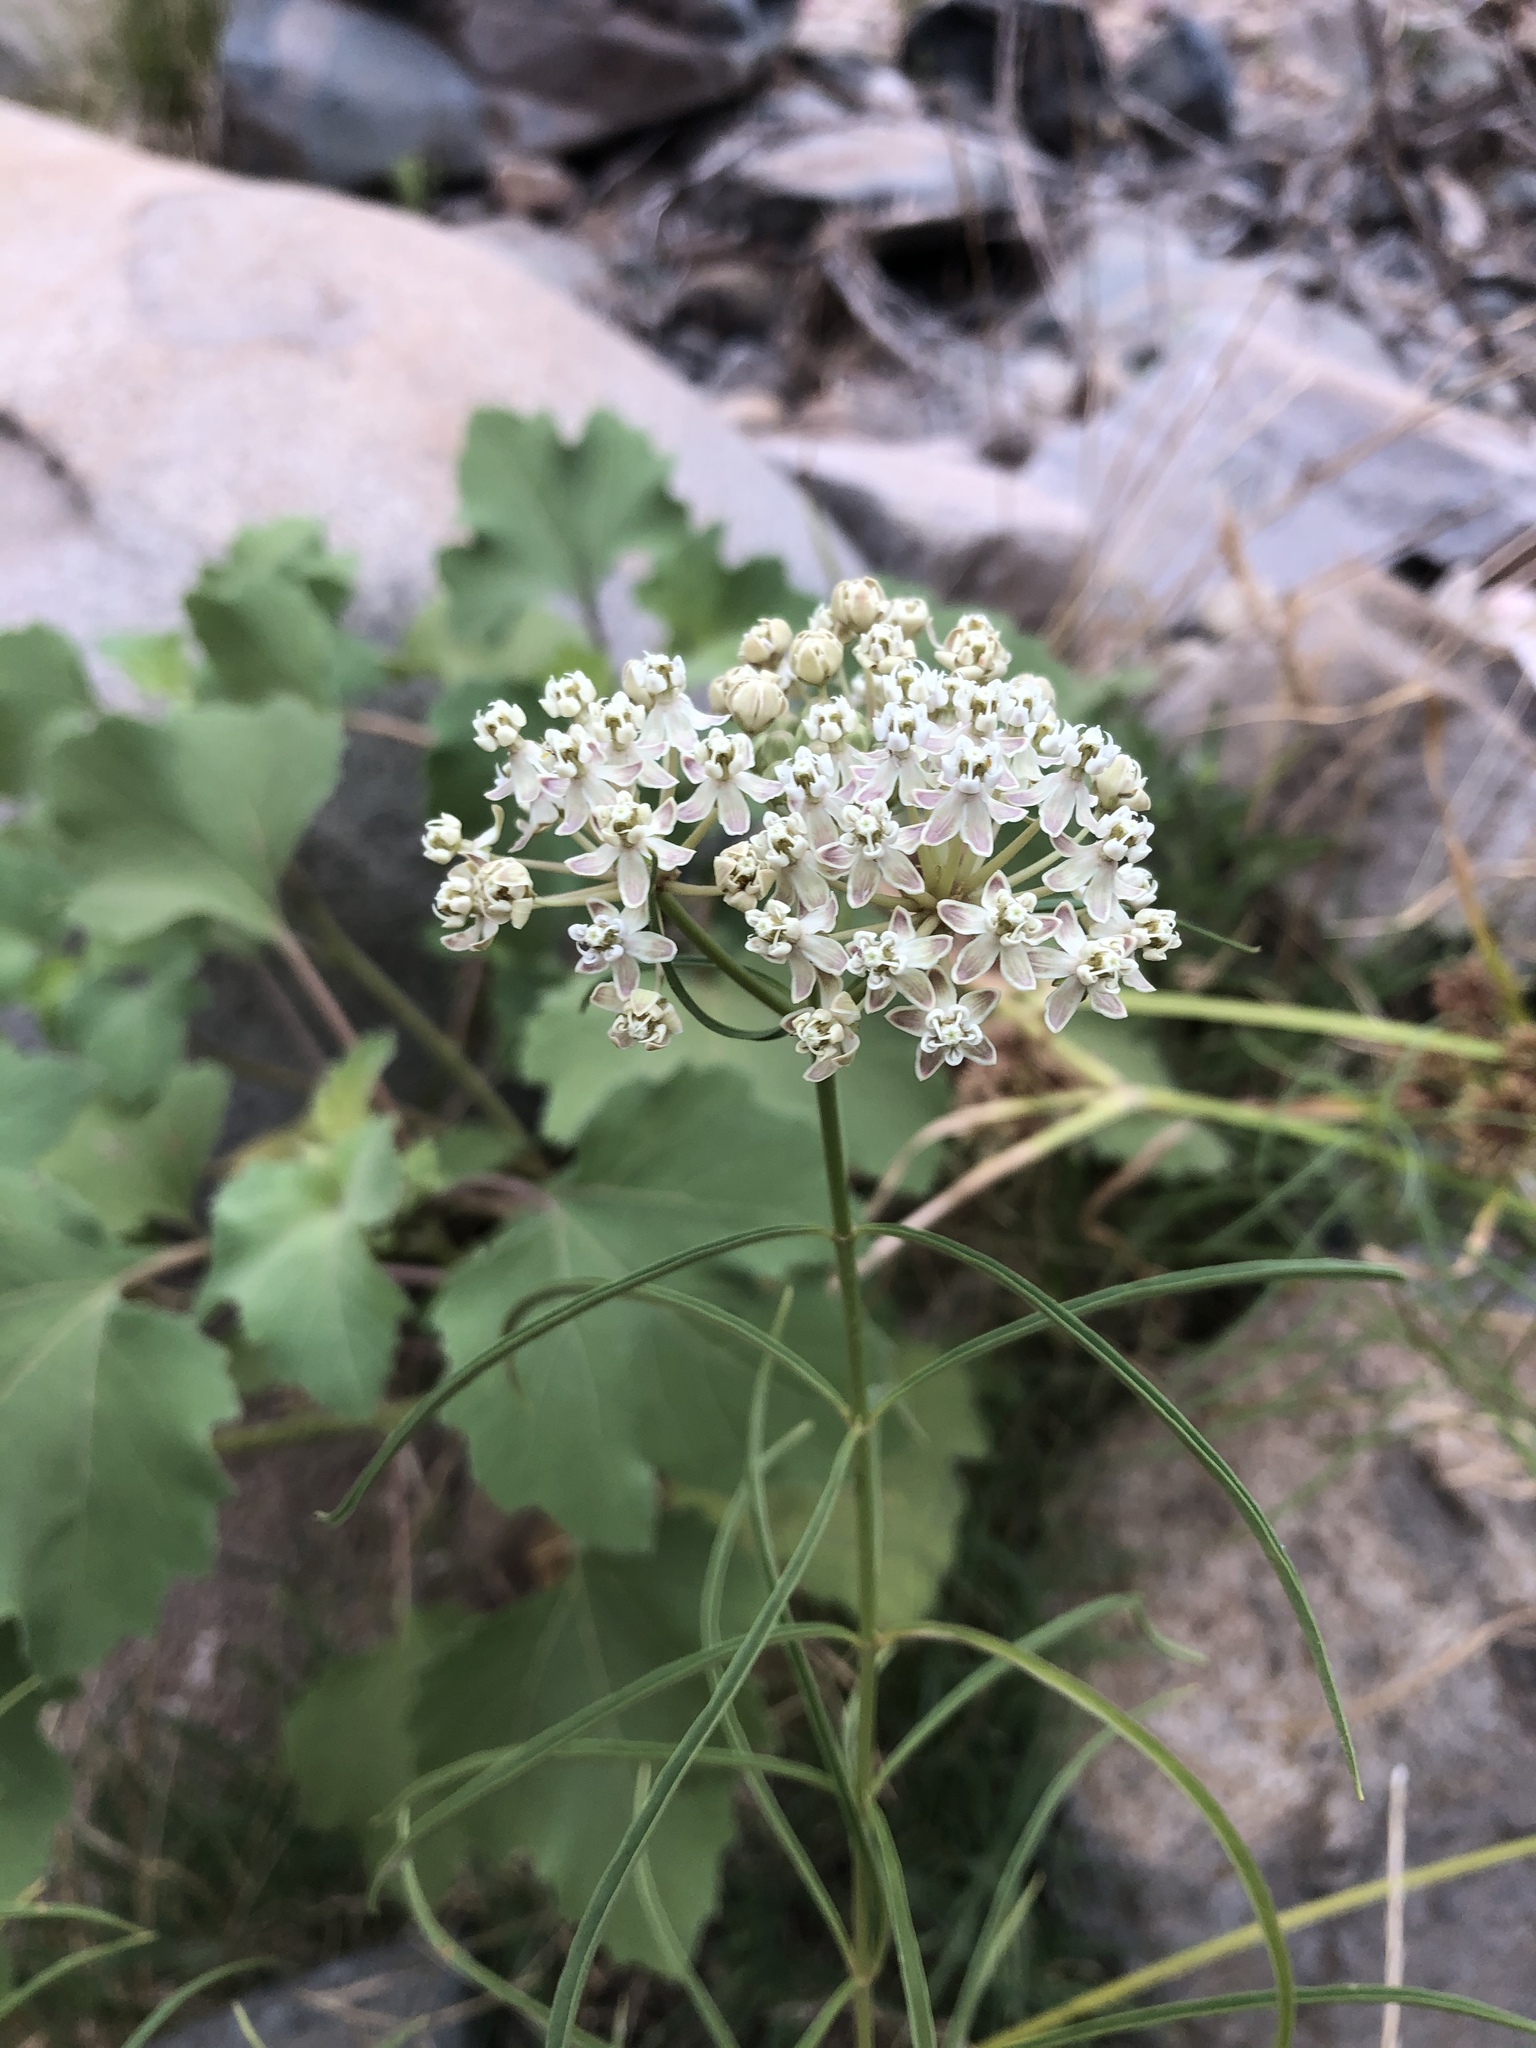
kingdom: Plantae
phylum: Tracheophyta
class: Magnoliopsida
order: Gentianales
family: Apocynaceae
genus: Asclepias
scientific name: Asclepias fascicularis
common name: Mexican milkweed
